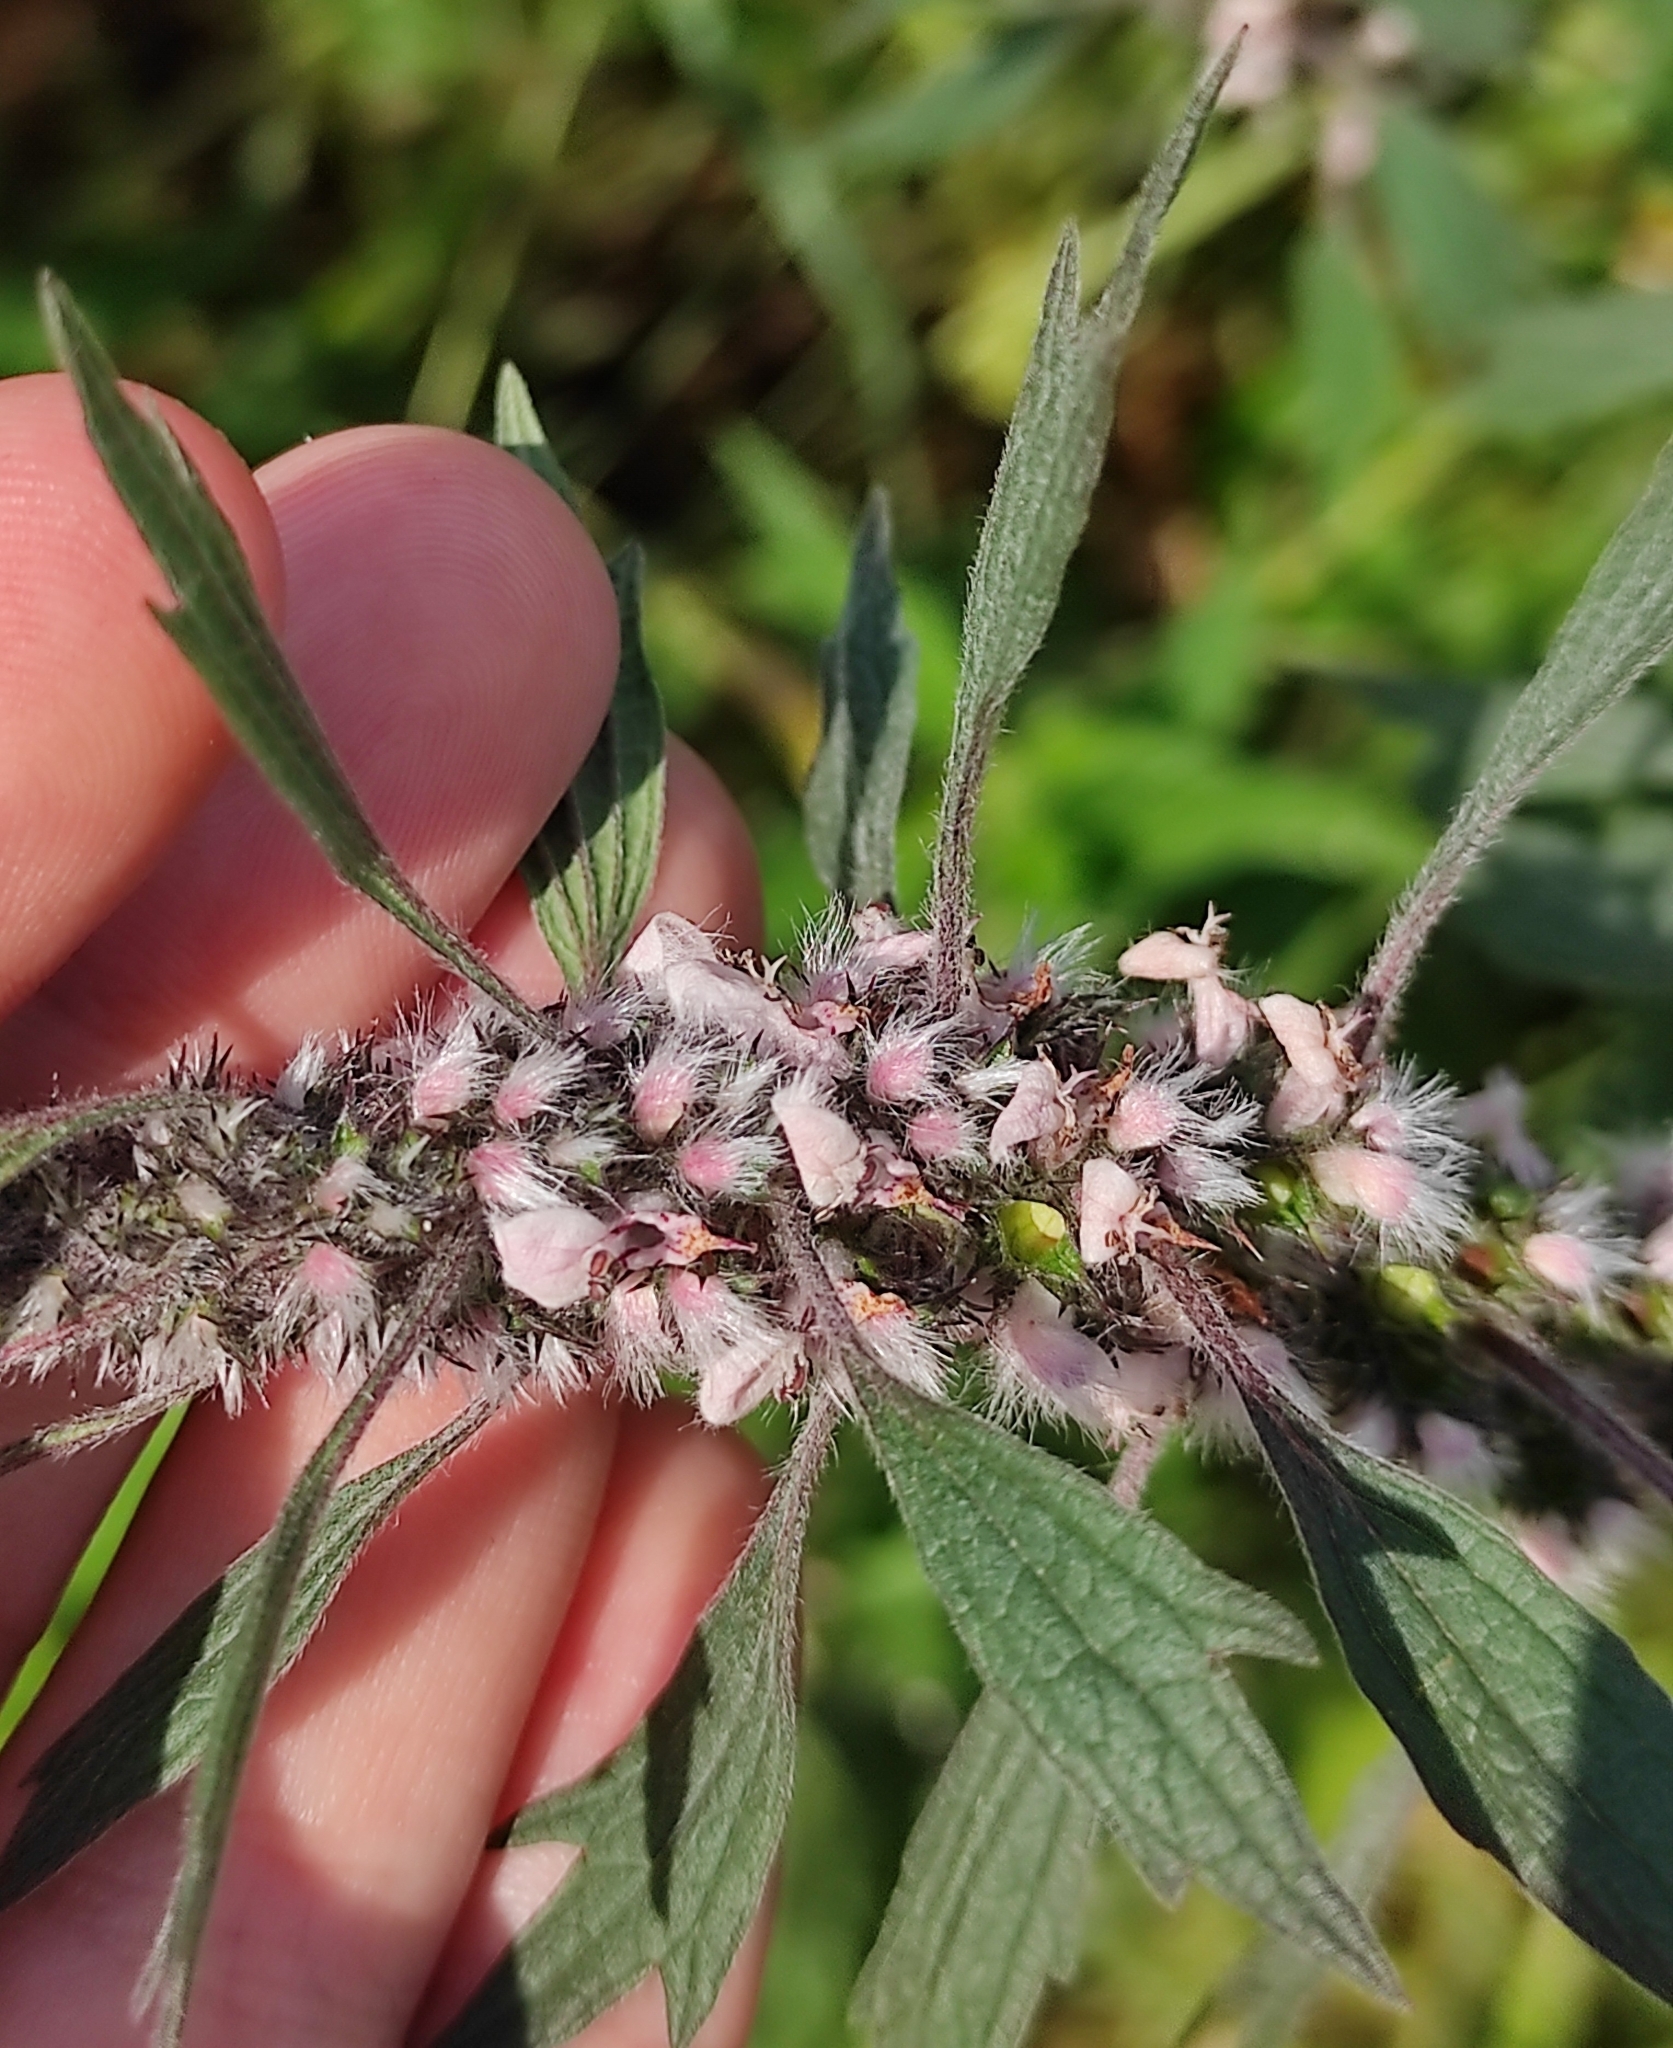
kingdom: Plantae
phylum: Tracheophyta
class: Magnoliopsida
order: Lamiales
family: Lamiaceae
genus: Leonurus
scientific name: Leonurus quinquelobatus
